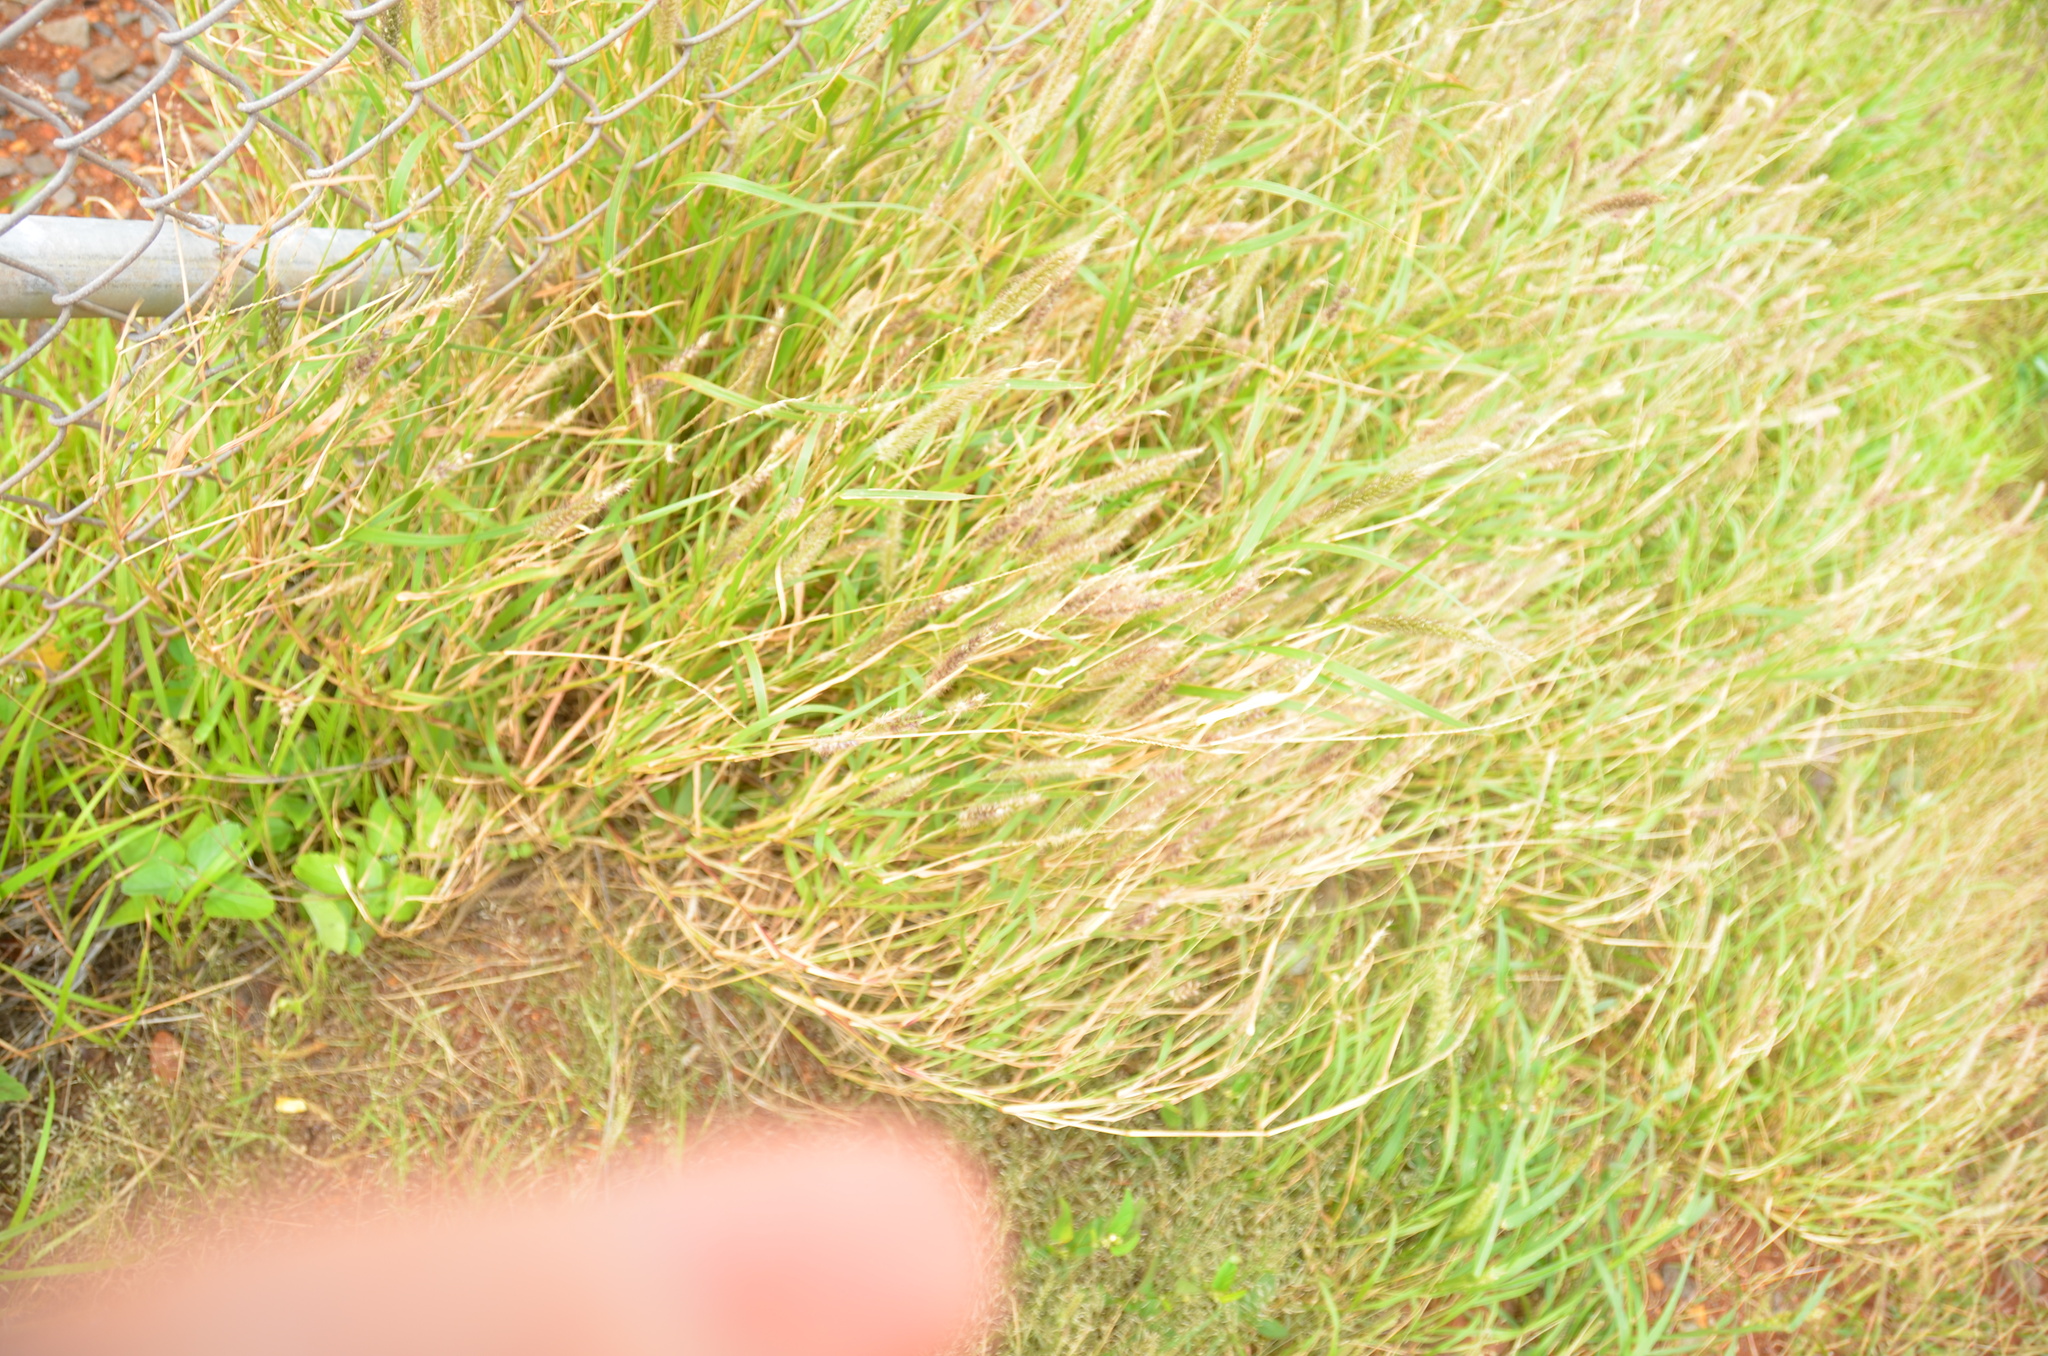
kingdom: Plantae
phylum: Tracheophyta
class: Liliopsida
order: Poales
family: Poaceae
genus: Cenchrus
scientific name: Cenchrus ciliaris
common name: Buffelgrass
